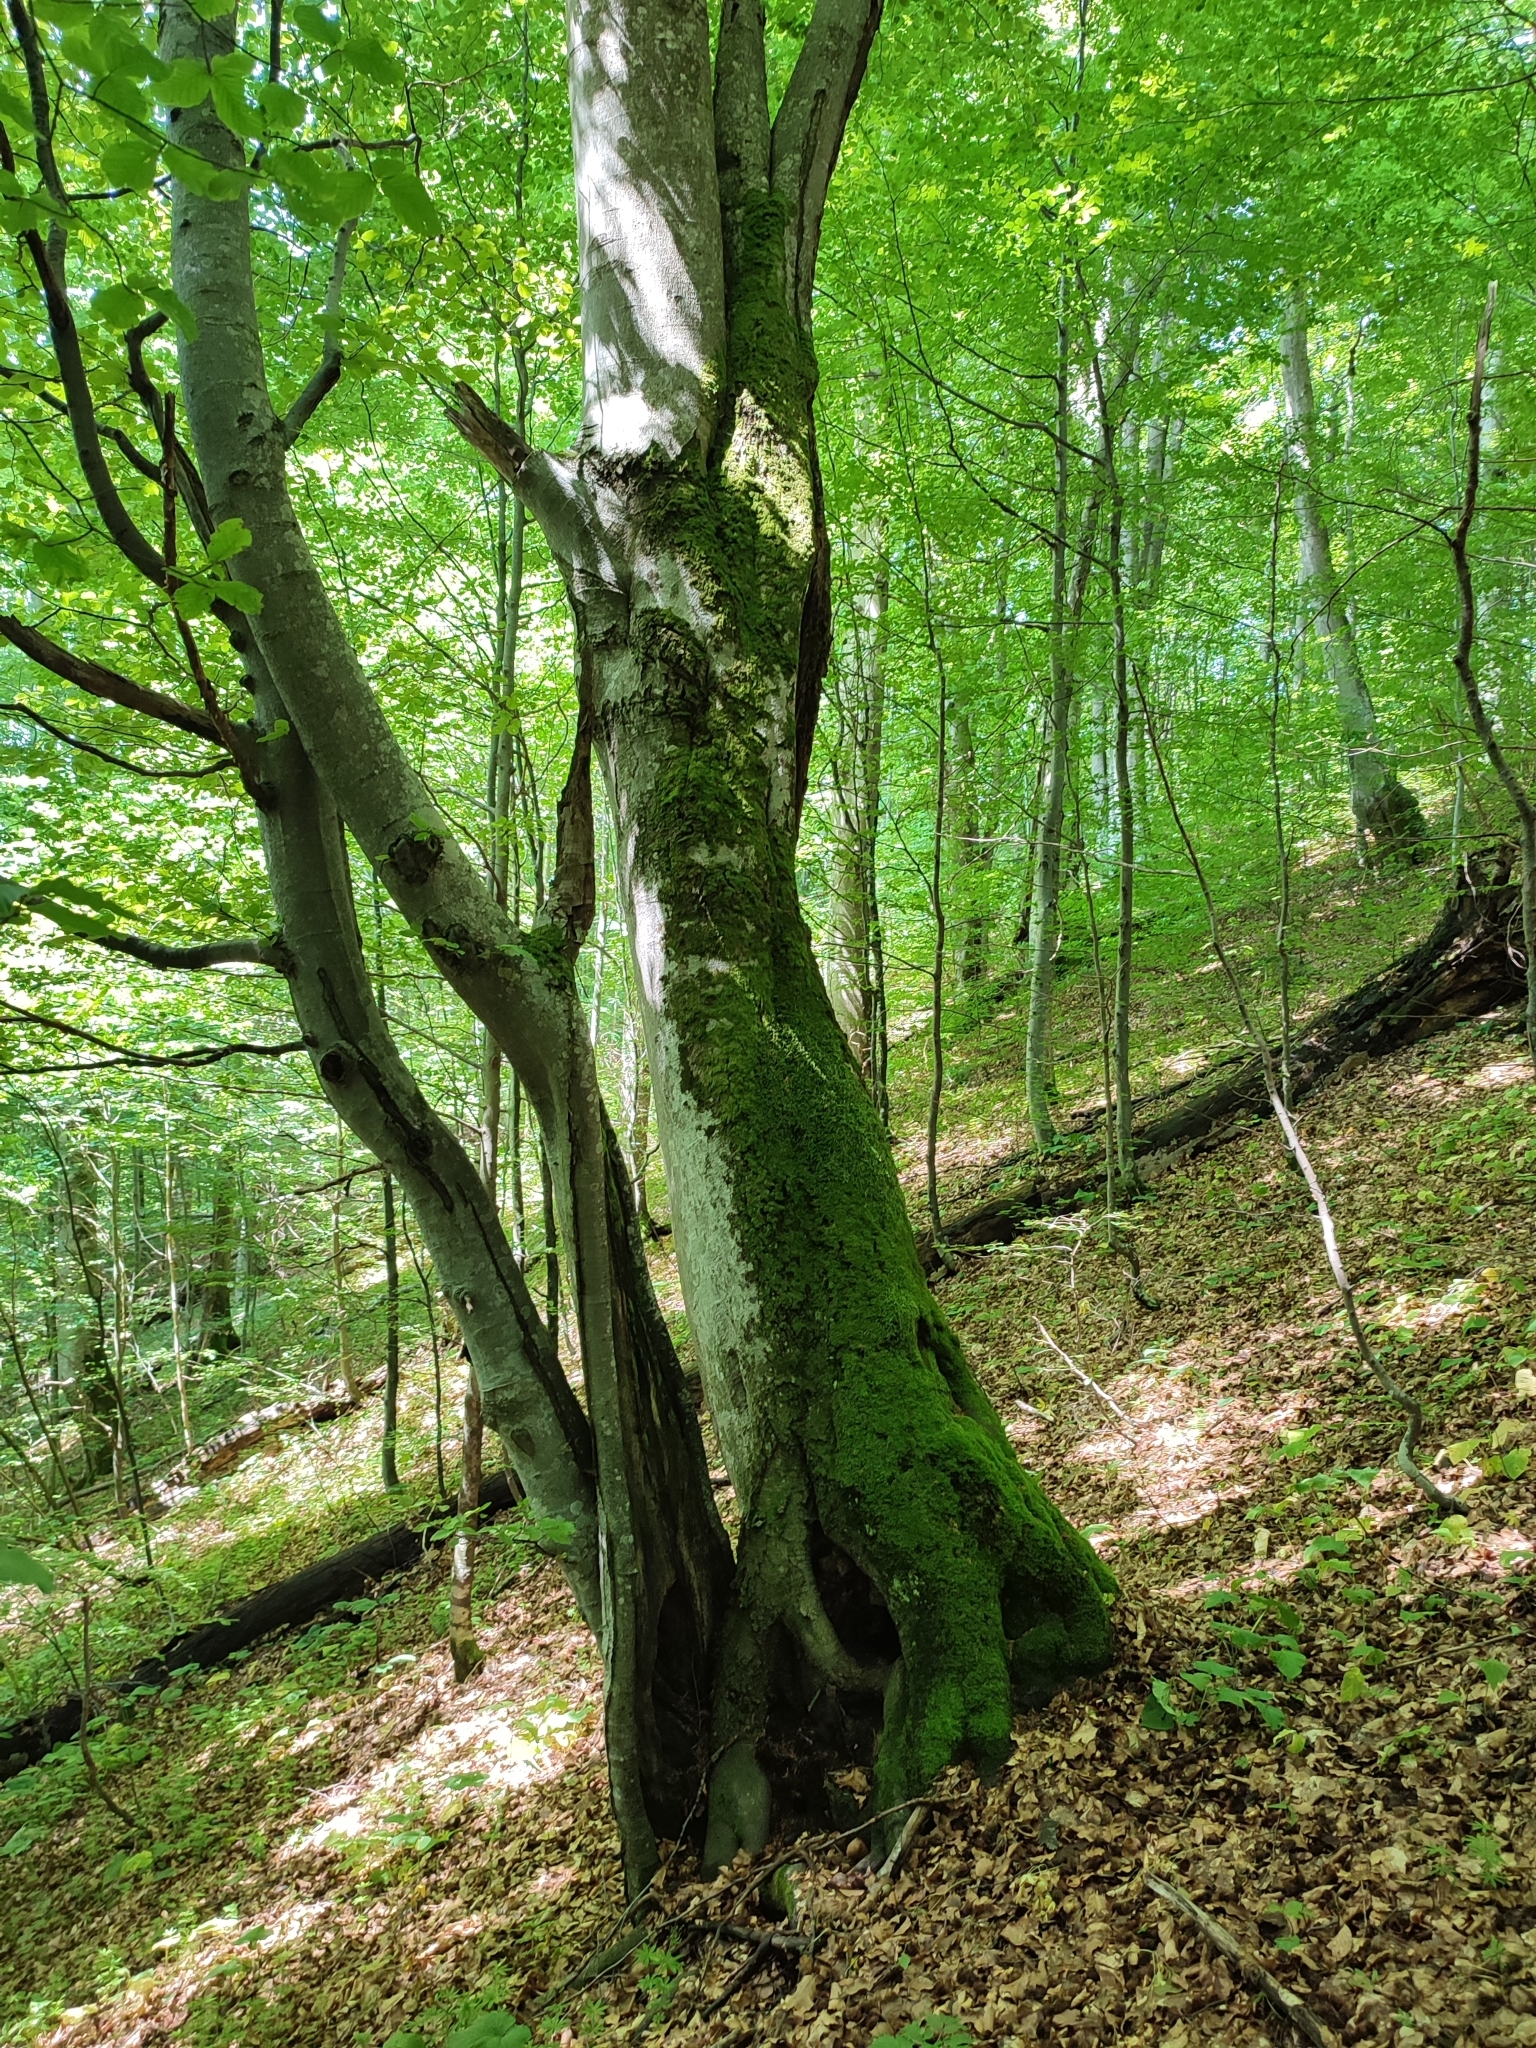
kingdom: Plantae
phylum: Tracheophyta
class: Magnoliopsida
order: Fagales
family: Fagaceae
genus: Fagus
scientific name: Fagus sylvatica
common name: Beech
